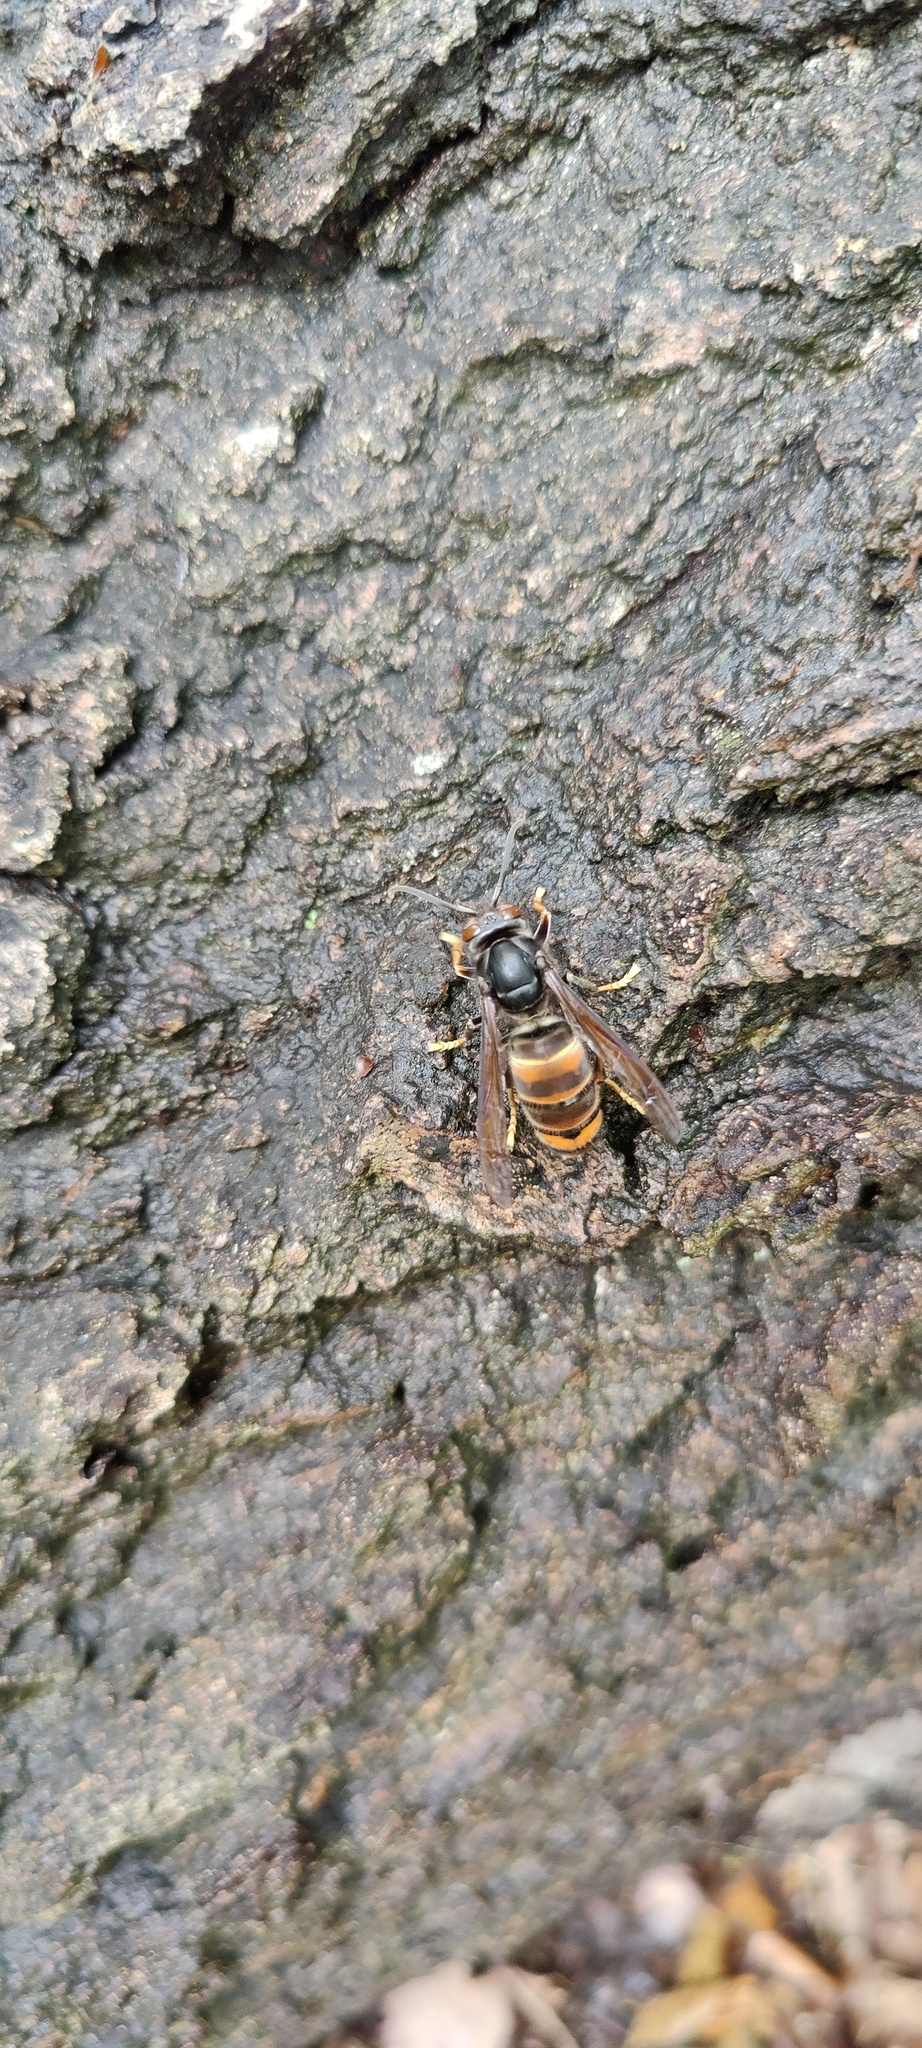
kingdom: Animalia
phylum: Arthropoda
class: Insecta
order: Hymenoptera
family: Vespidae
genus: Vespa
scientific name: Vespa velutina
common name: Asian hornet
